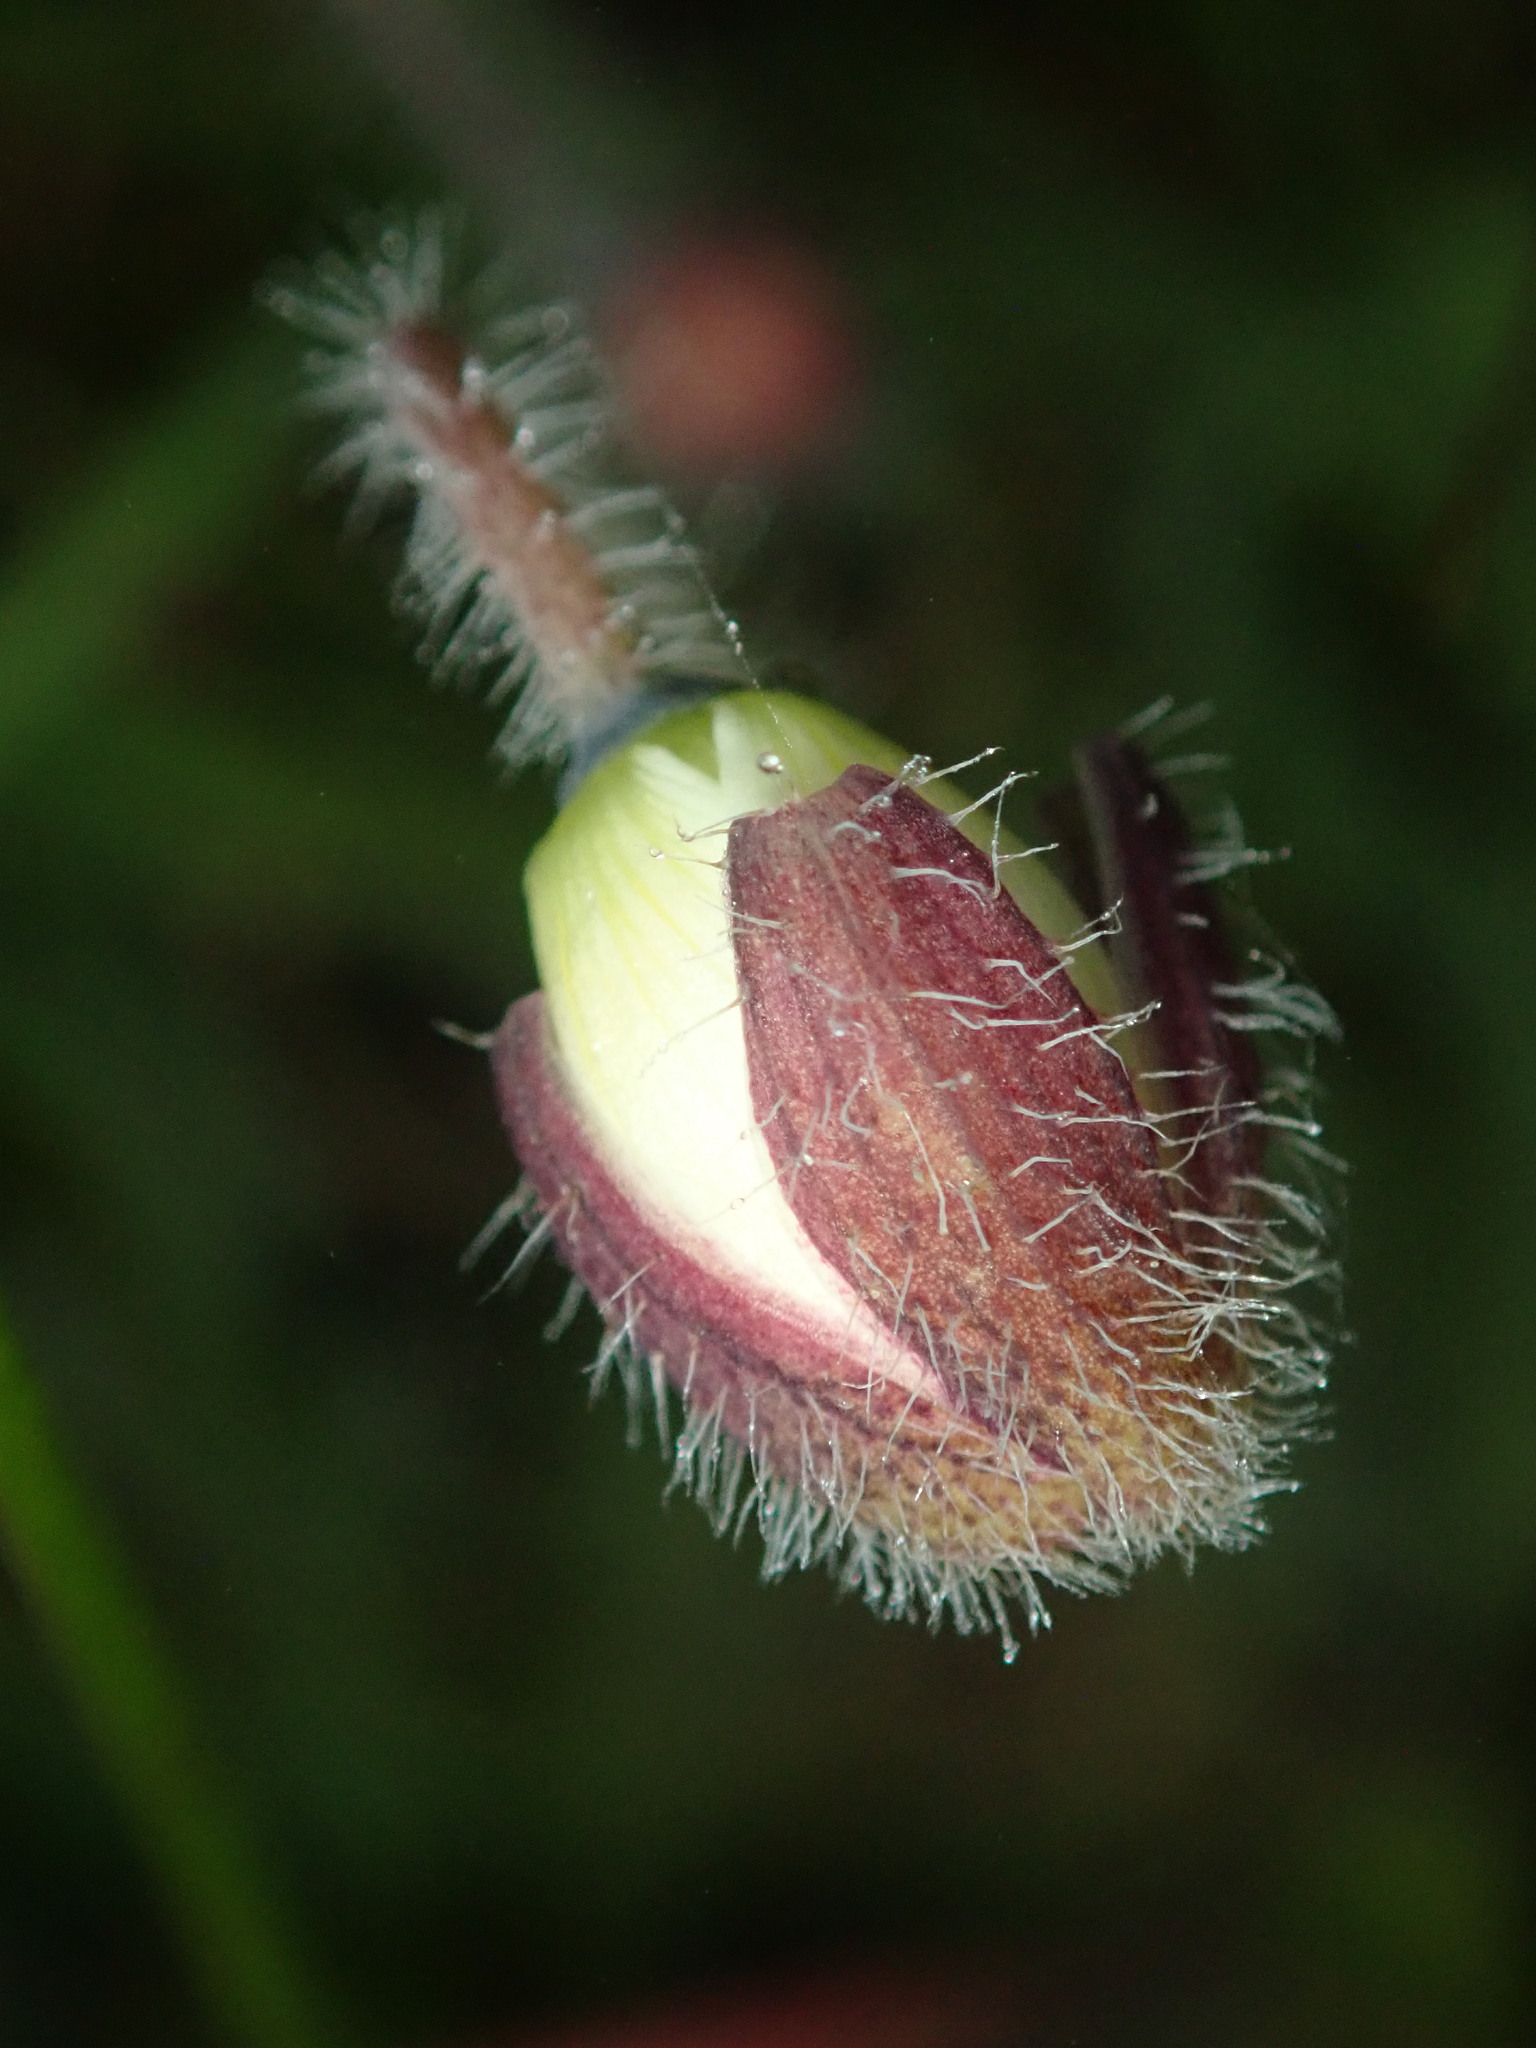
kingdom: Plantae
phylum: Tracheophyta
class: Magnoliopsida
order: Ranunculales
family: Papaveraceae
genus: Platystemon
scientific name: Platystemon californicus
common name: Cream-cups
